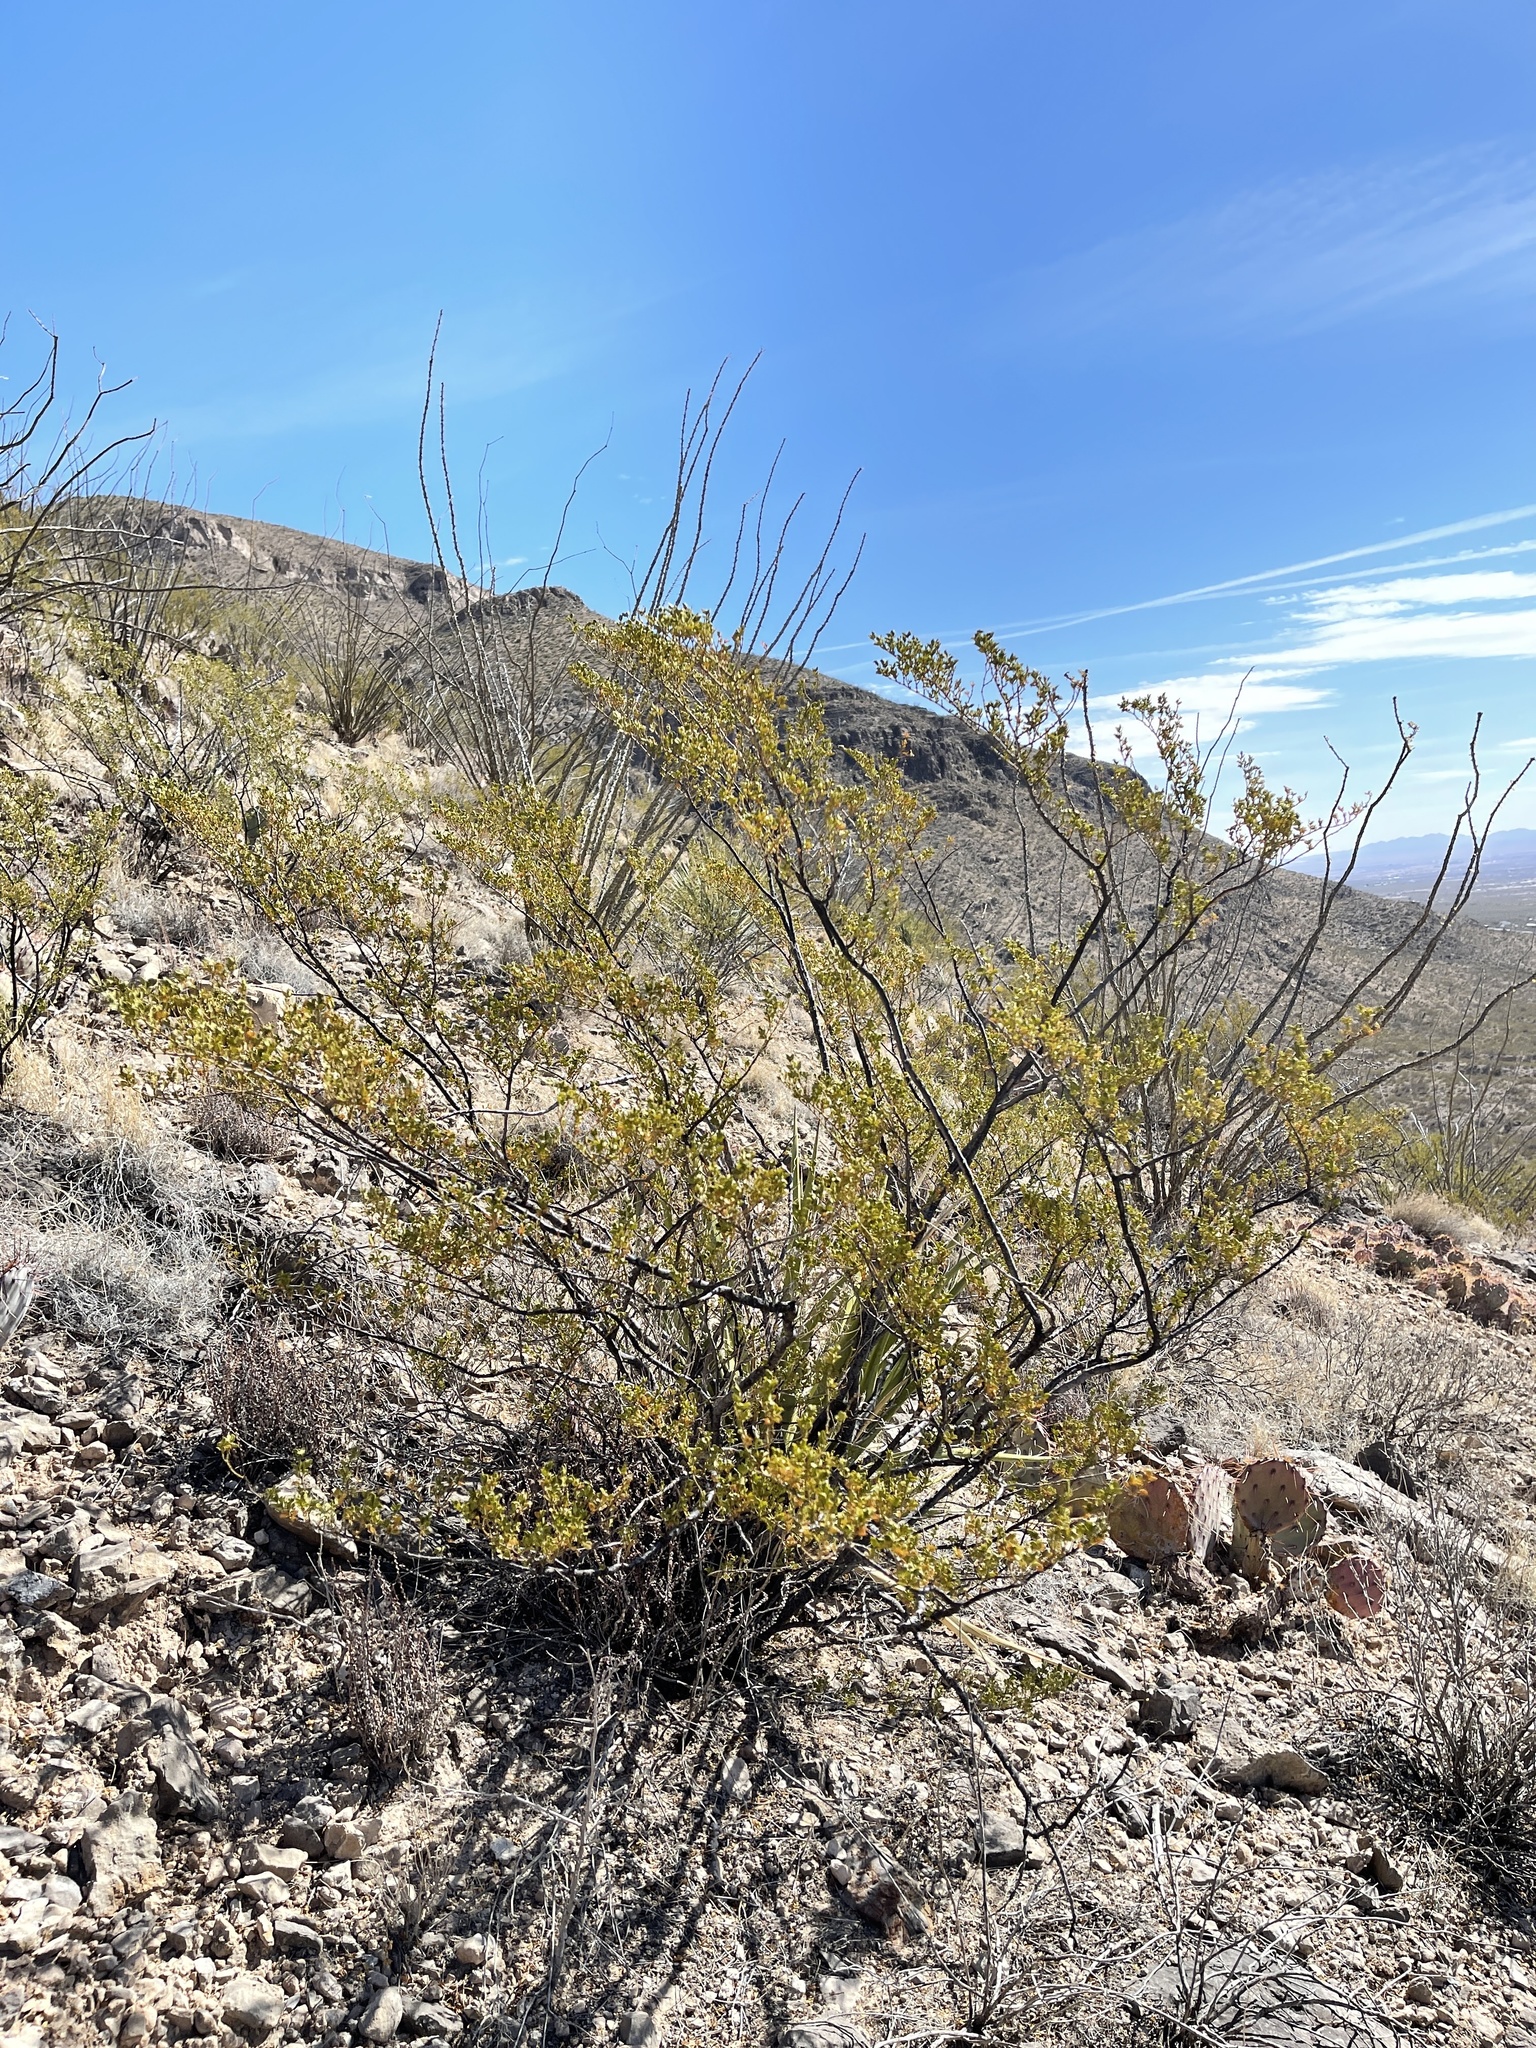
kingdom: Plantae
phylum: Tracheophyta
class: Magnoliopsida
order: Zygophyllales
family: Zygophyllaceae
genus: Larrea
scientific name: Larrea tridentata
